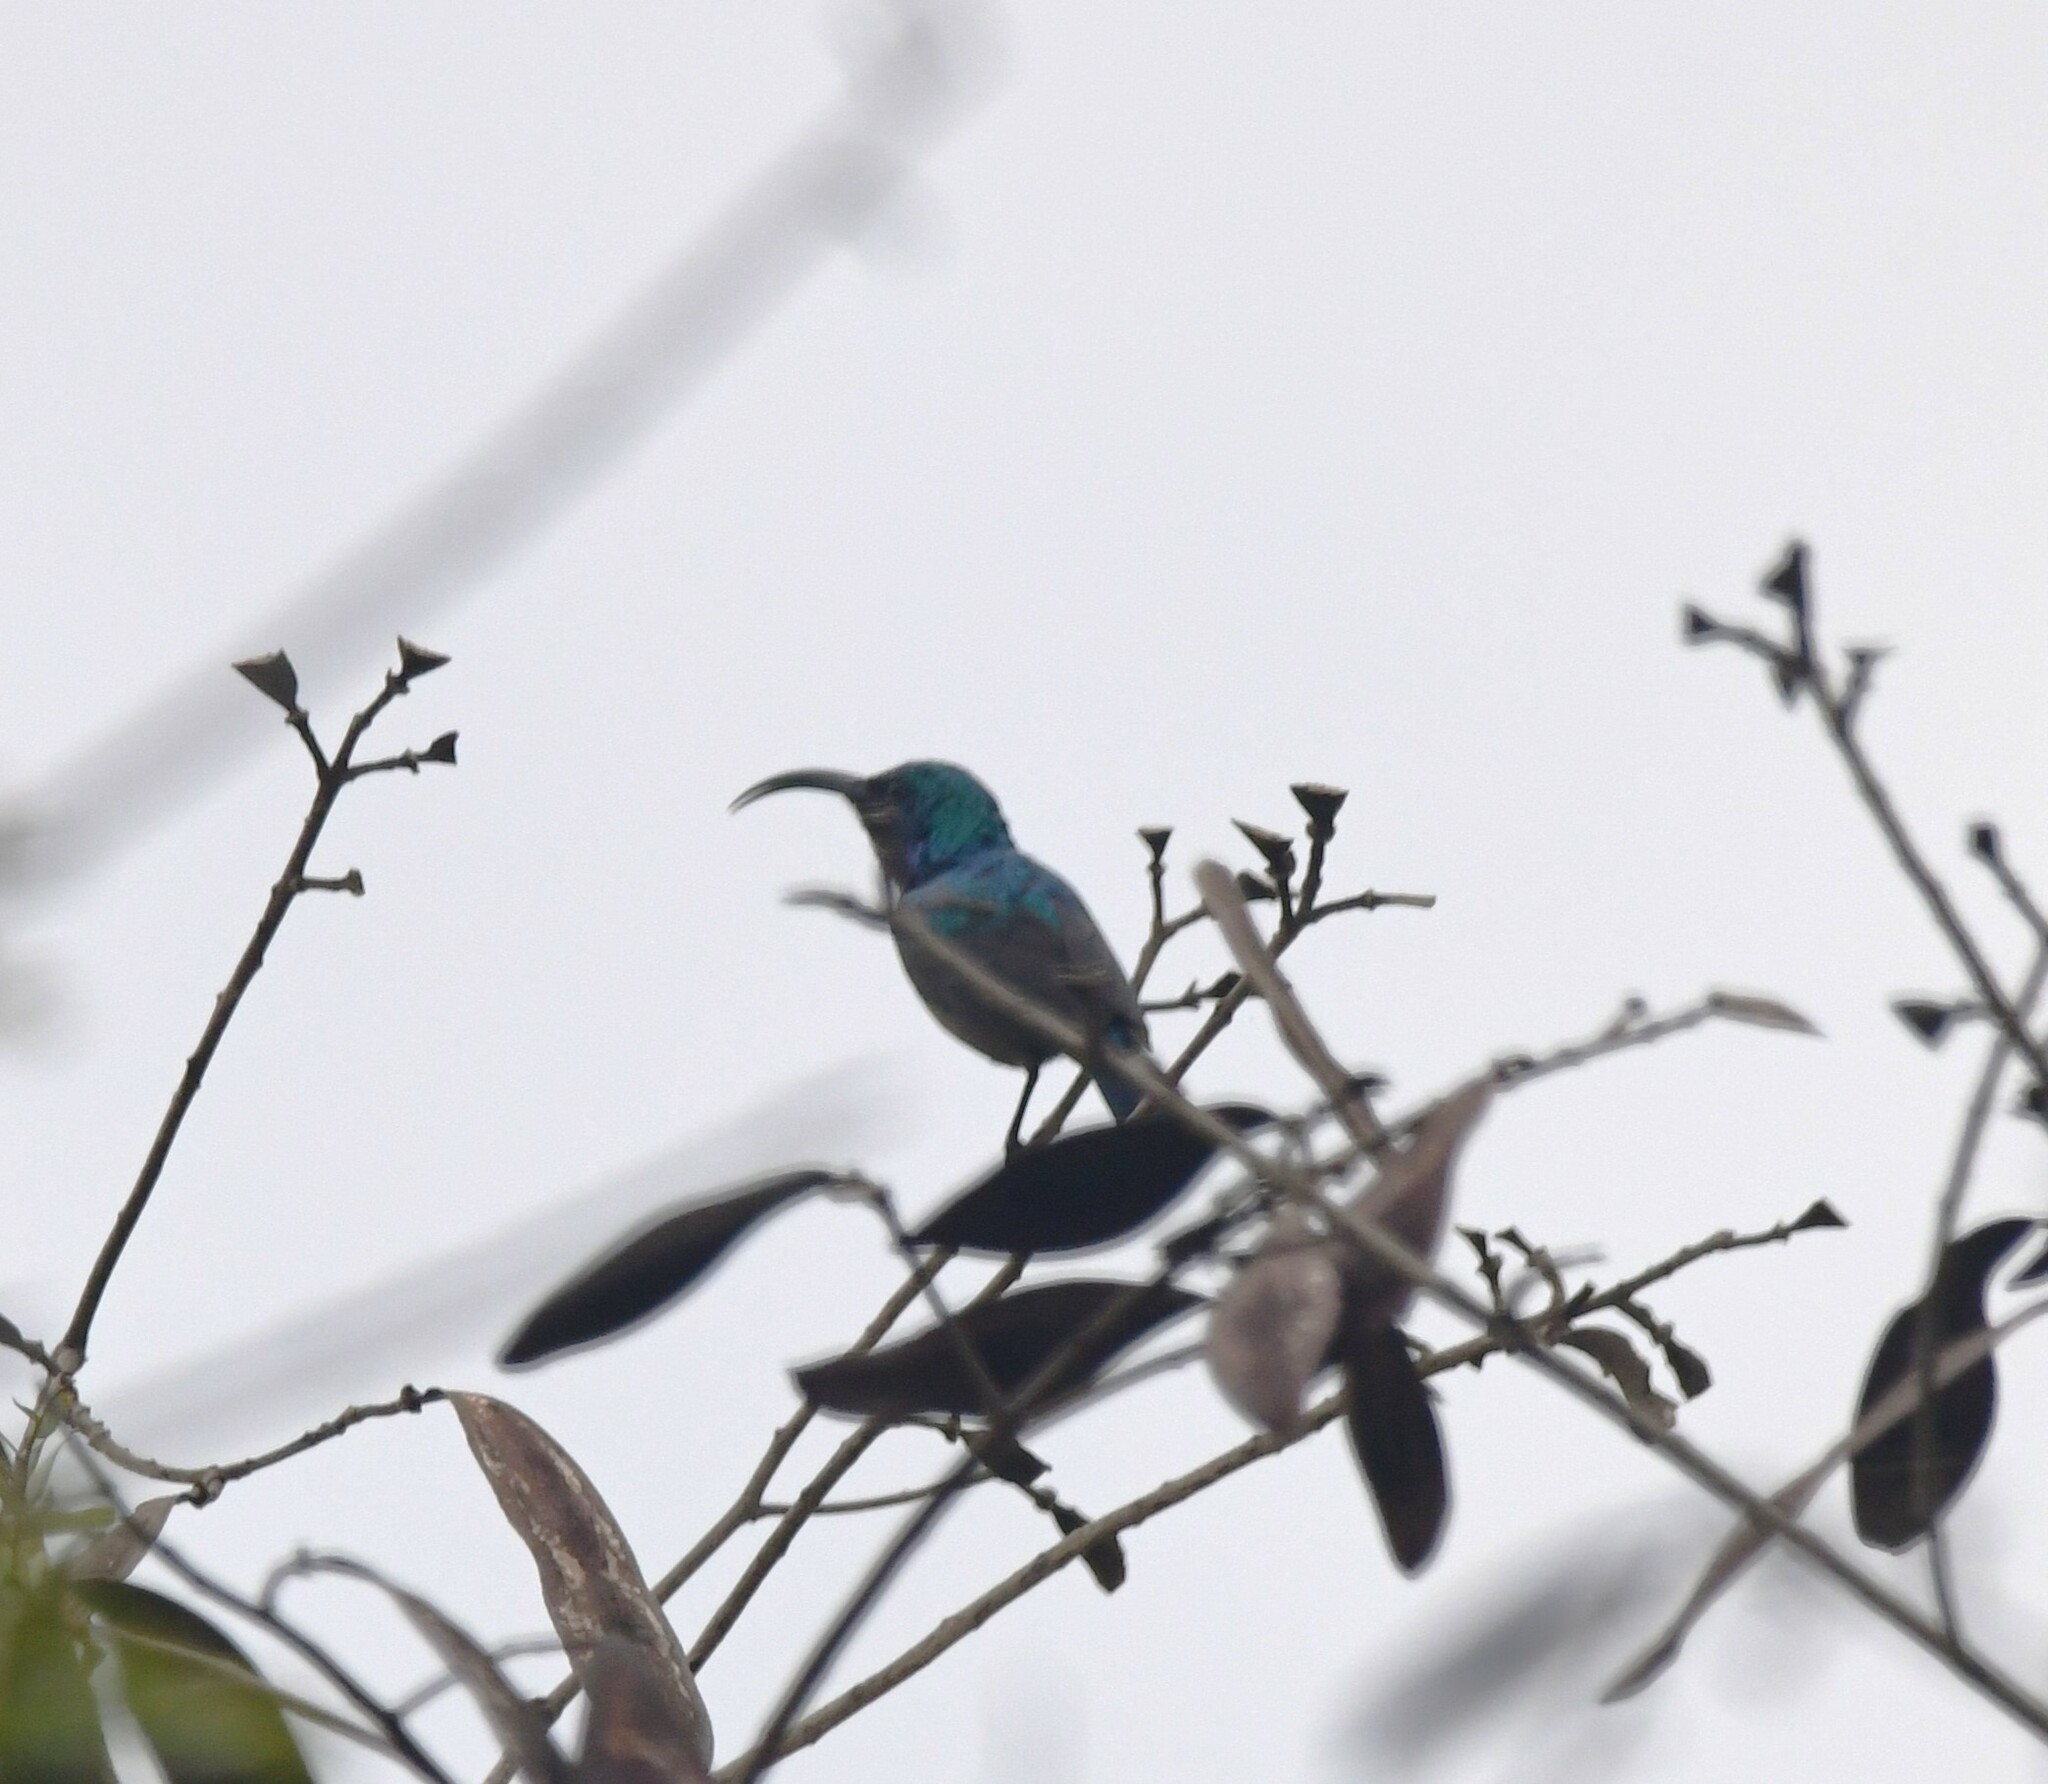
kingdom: Animalia
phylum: Chordata
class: Aves
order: Passeriformes
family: Nectariniidae
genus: Cinnyris
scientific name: Cinnyris lotenius
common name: Loten's sunbird
